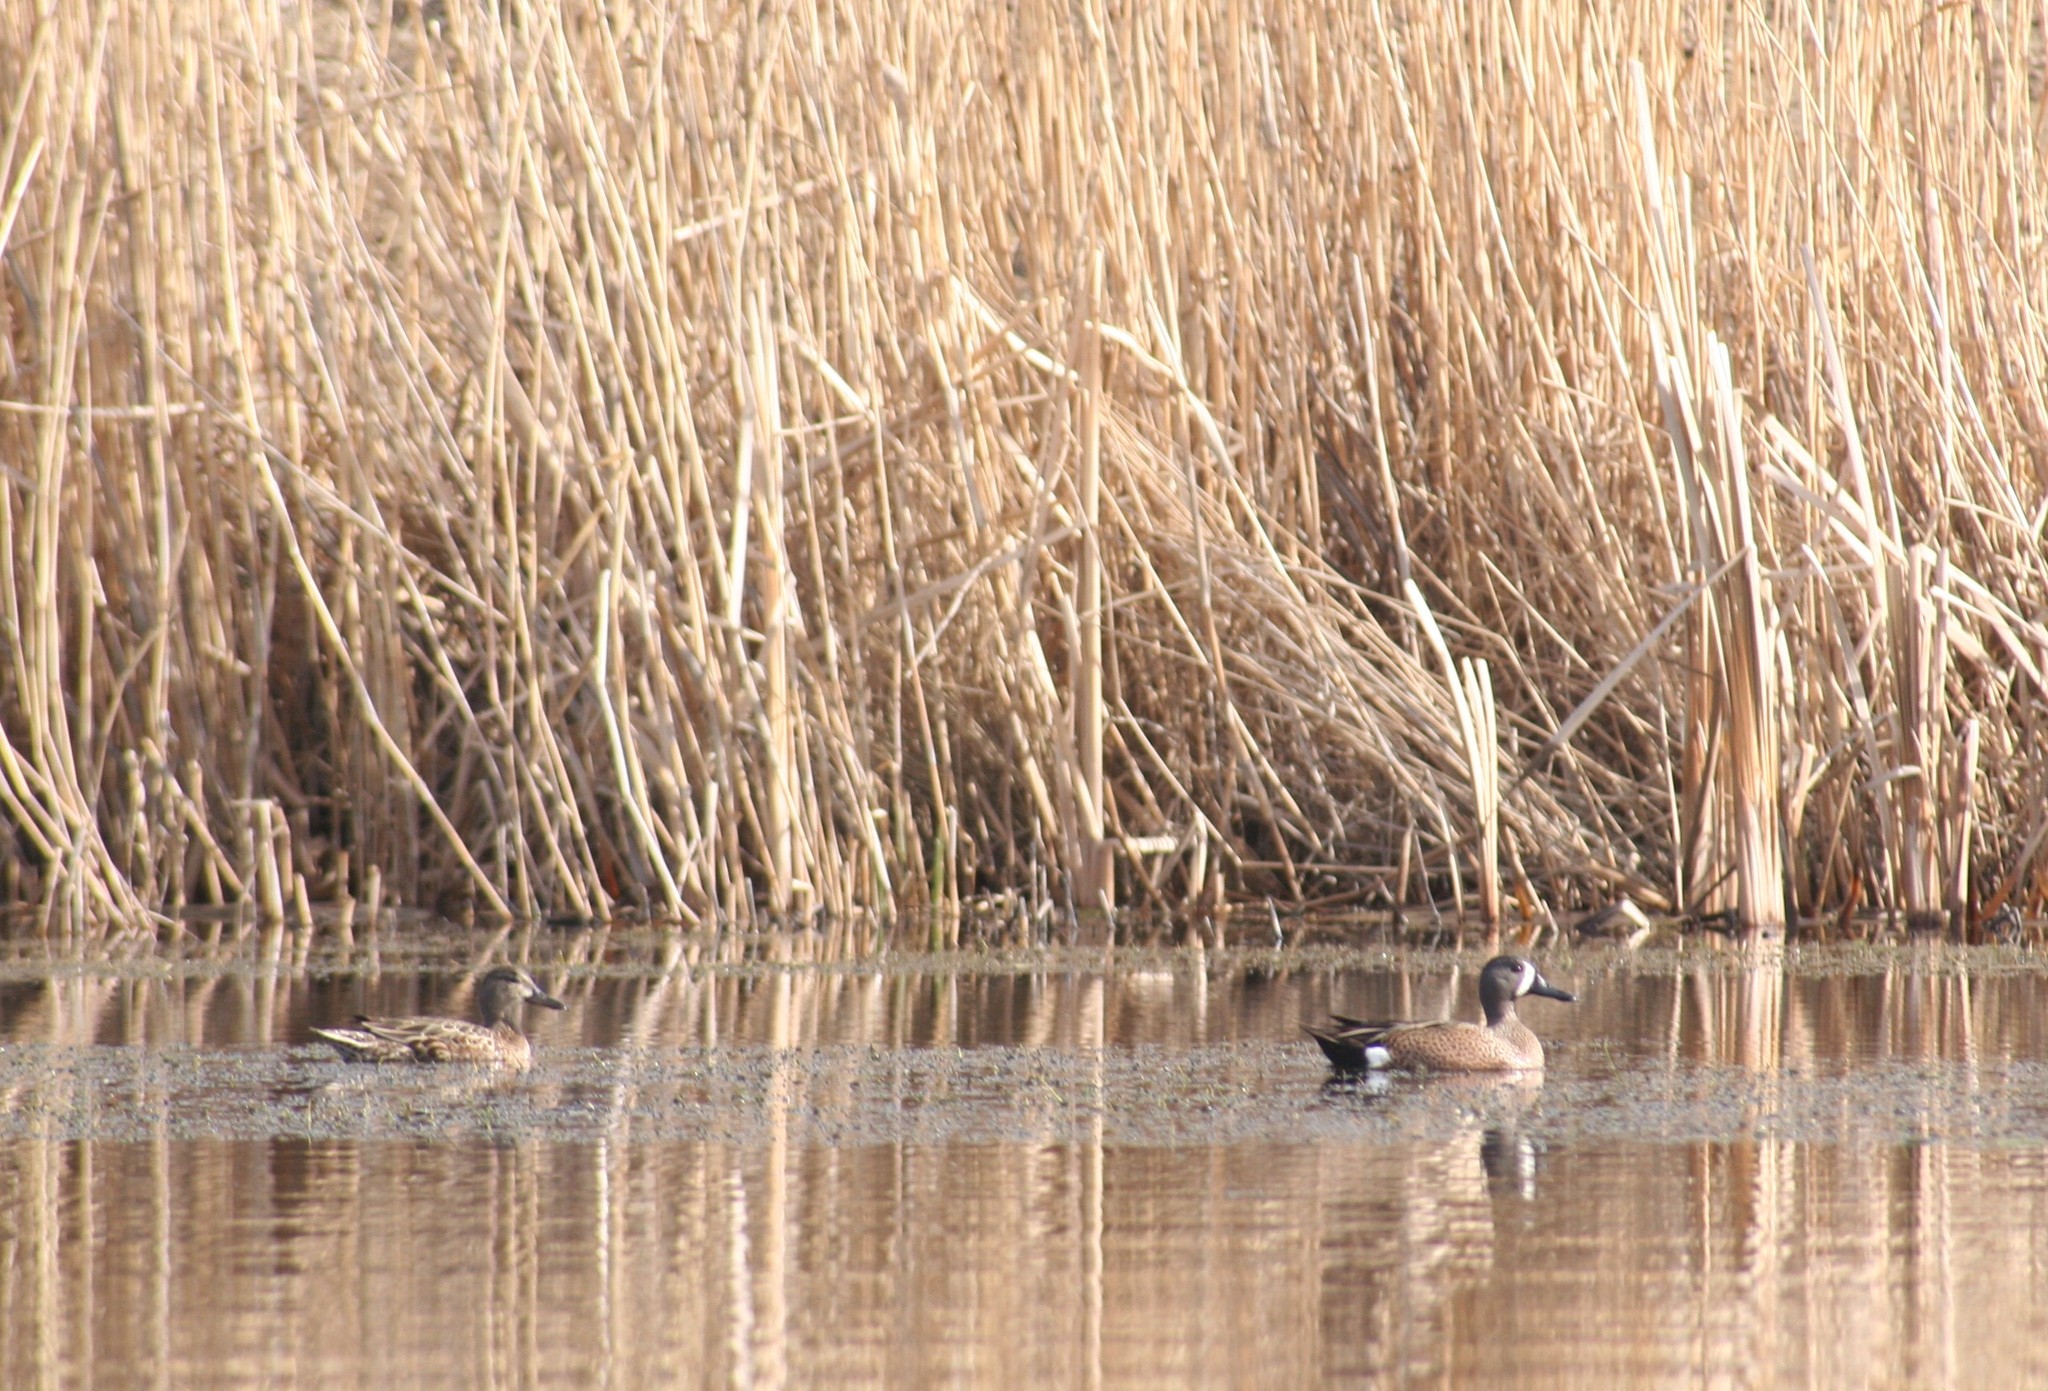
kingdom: Animalia
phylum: Chordata
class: Aves
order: Anseriformes
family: Anatidae
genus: Spatula
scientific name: Spatula discors
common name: Blue-winged teal
